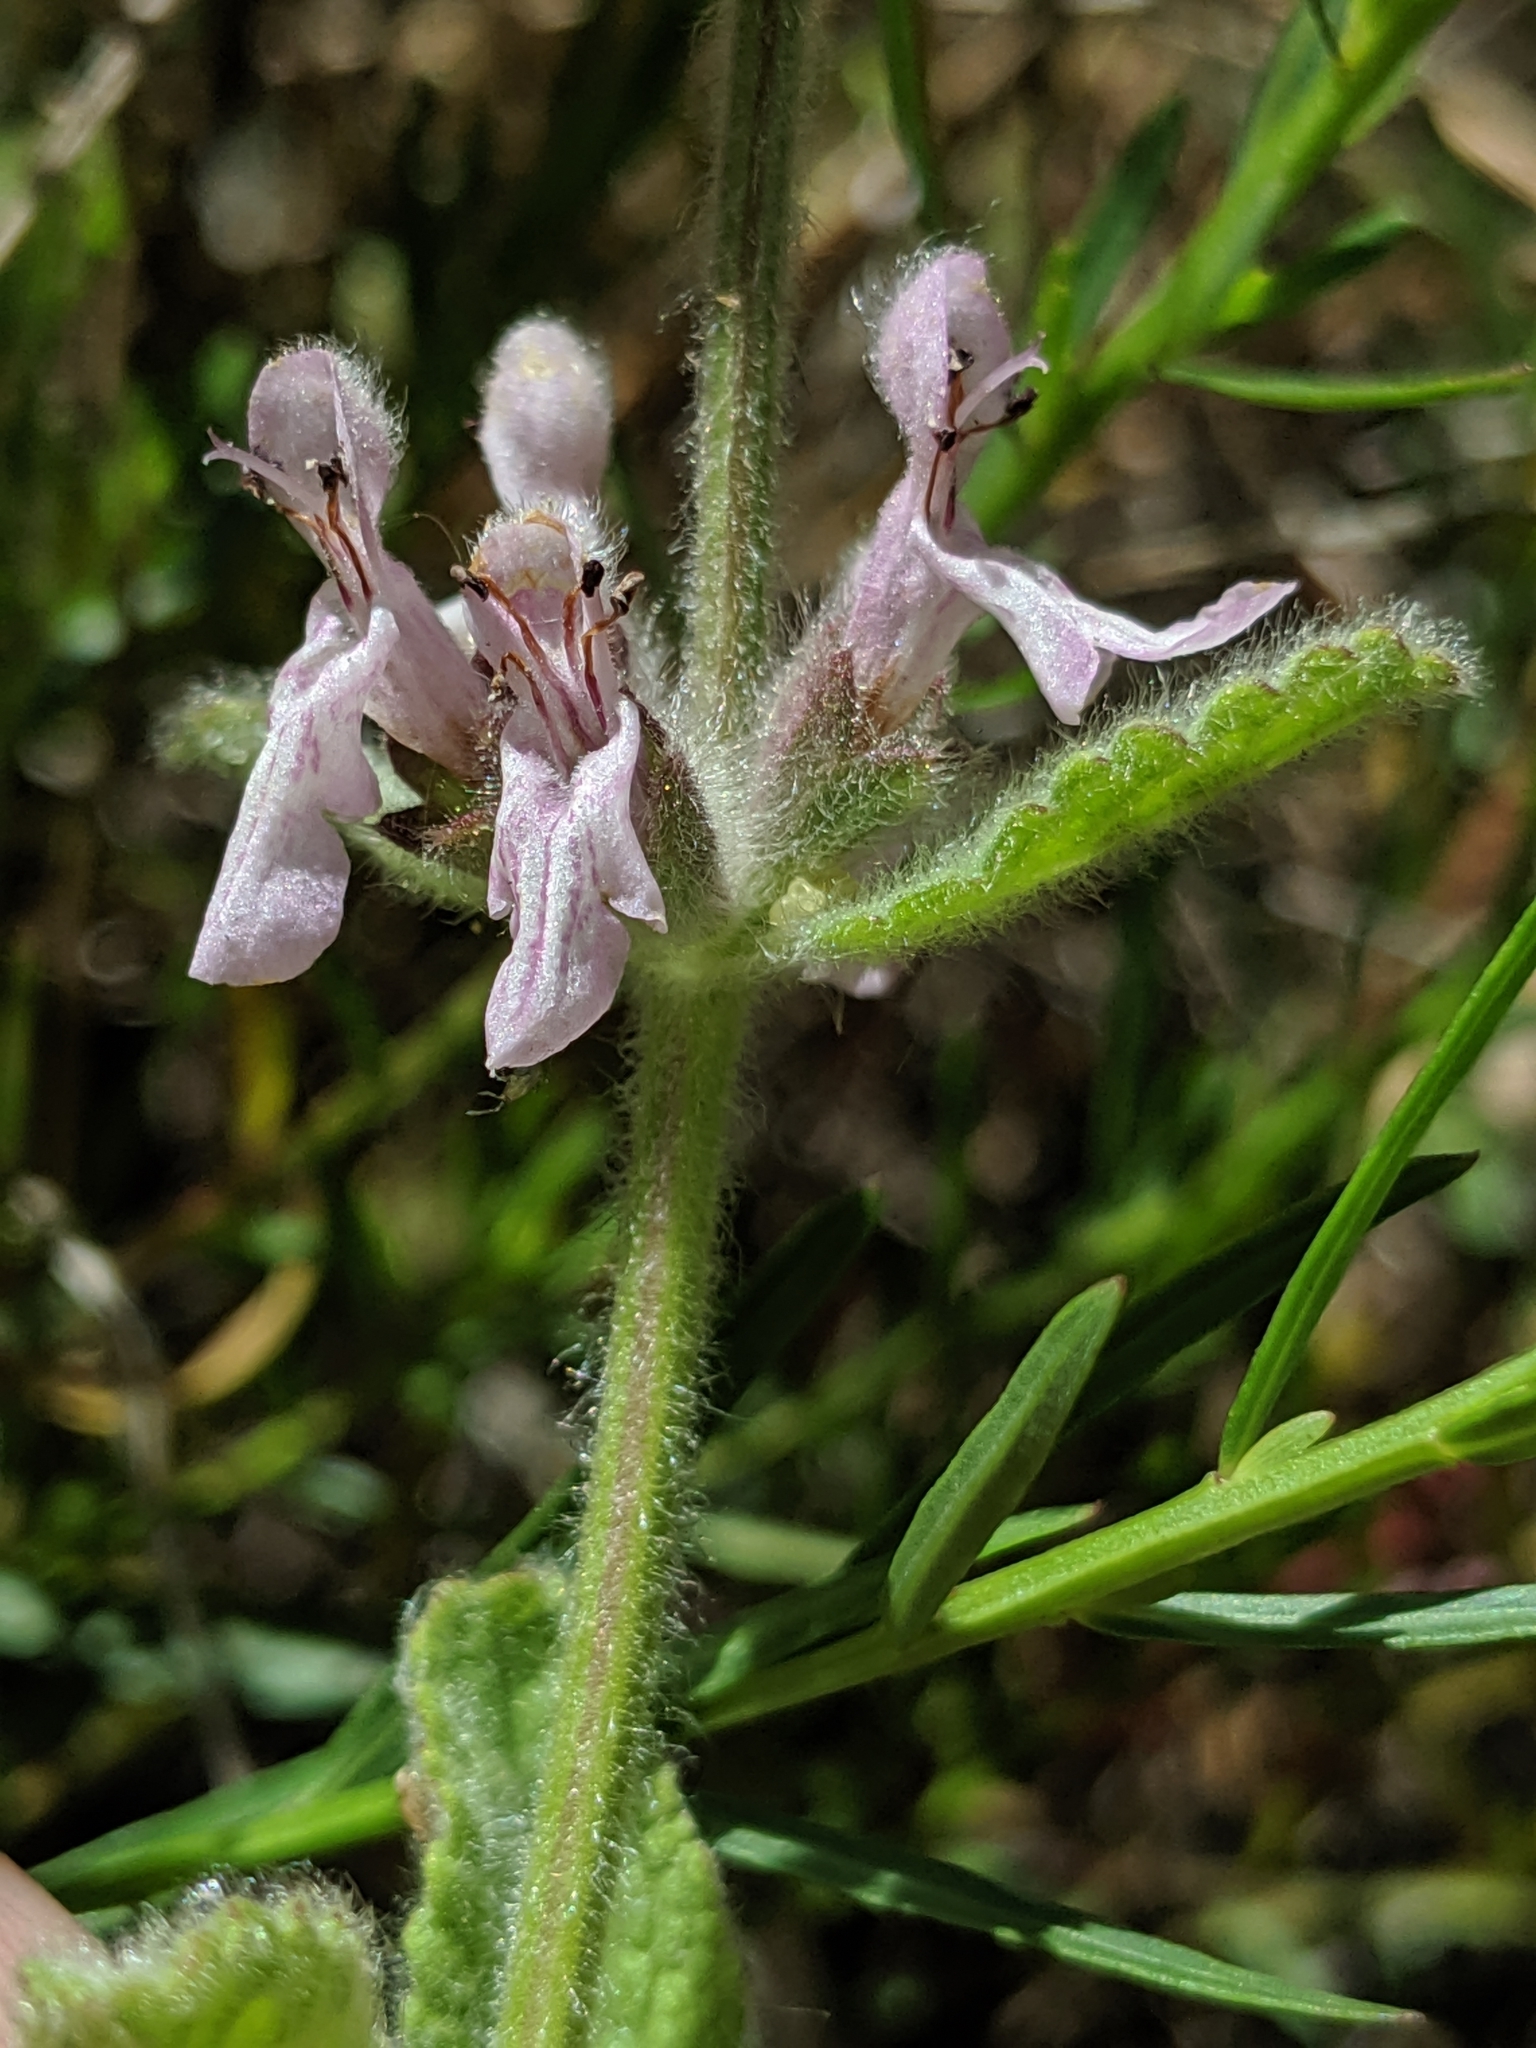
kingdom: Plantae
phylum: Tracheophyta
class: Magnoliopsida
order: Lamiales
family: Lamiaceae
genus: Stachys
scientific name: Stachys ajugoides
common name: Hedge-nettle
